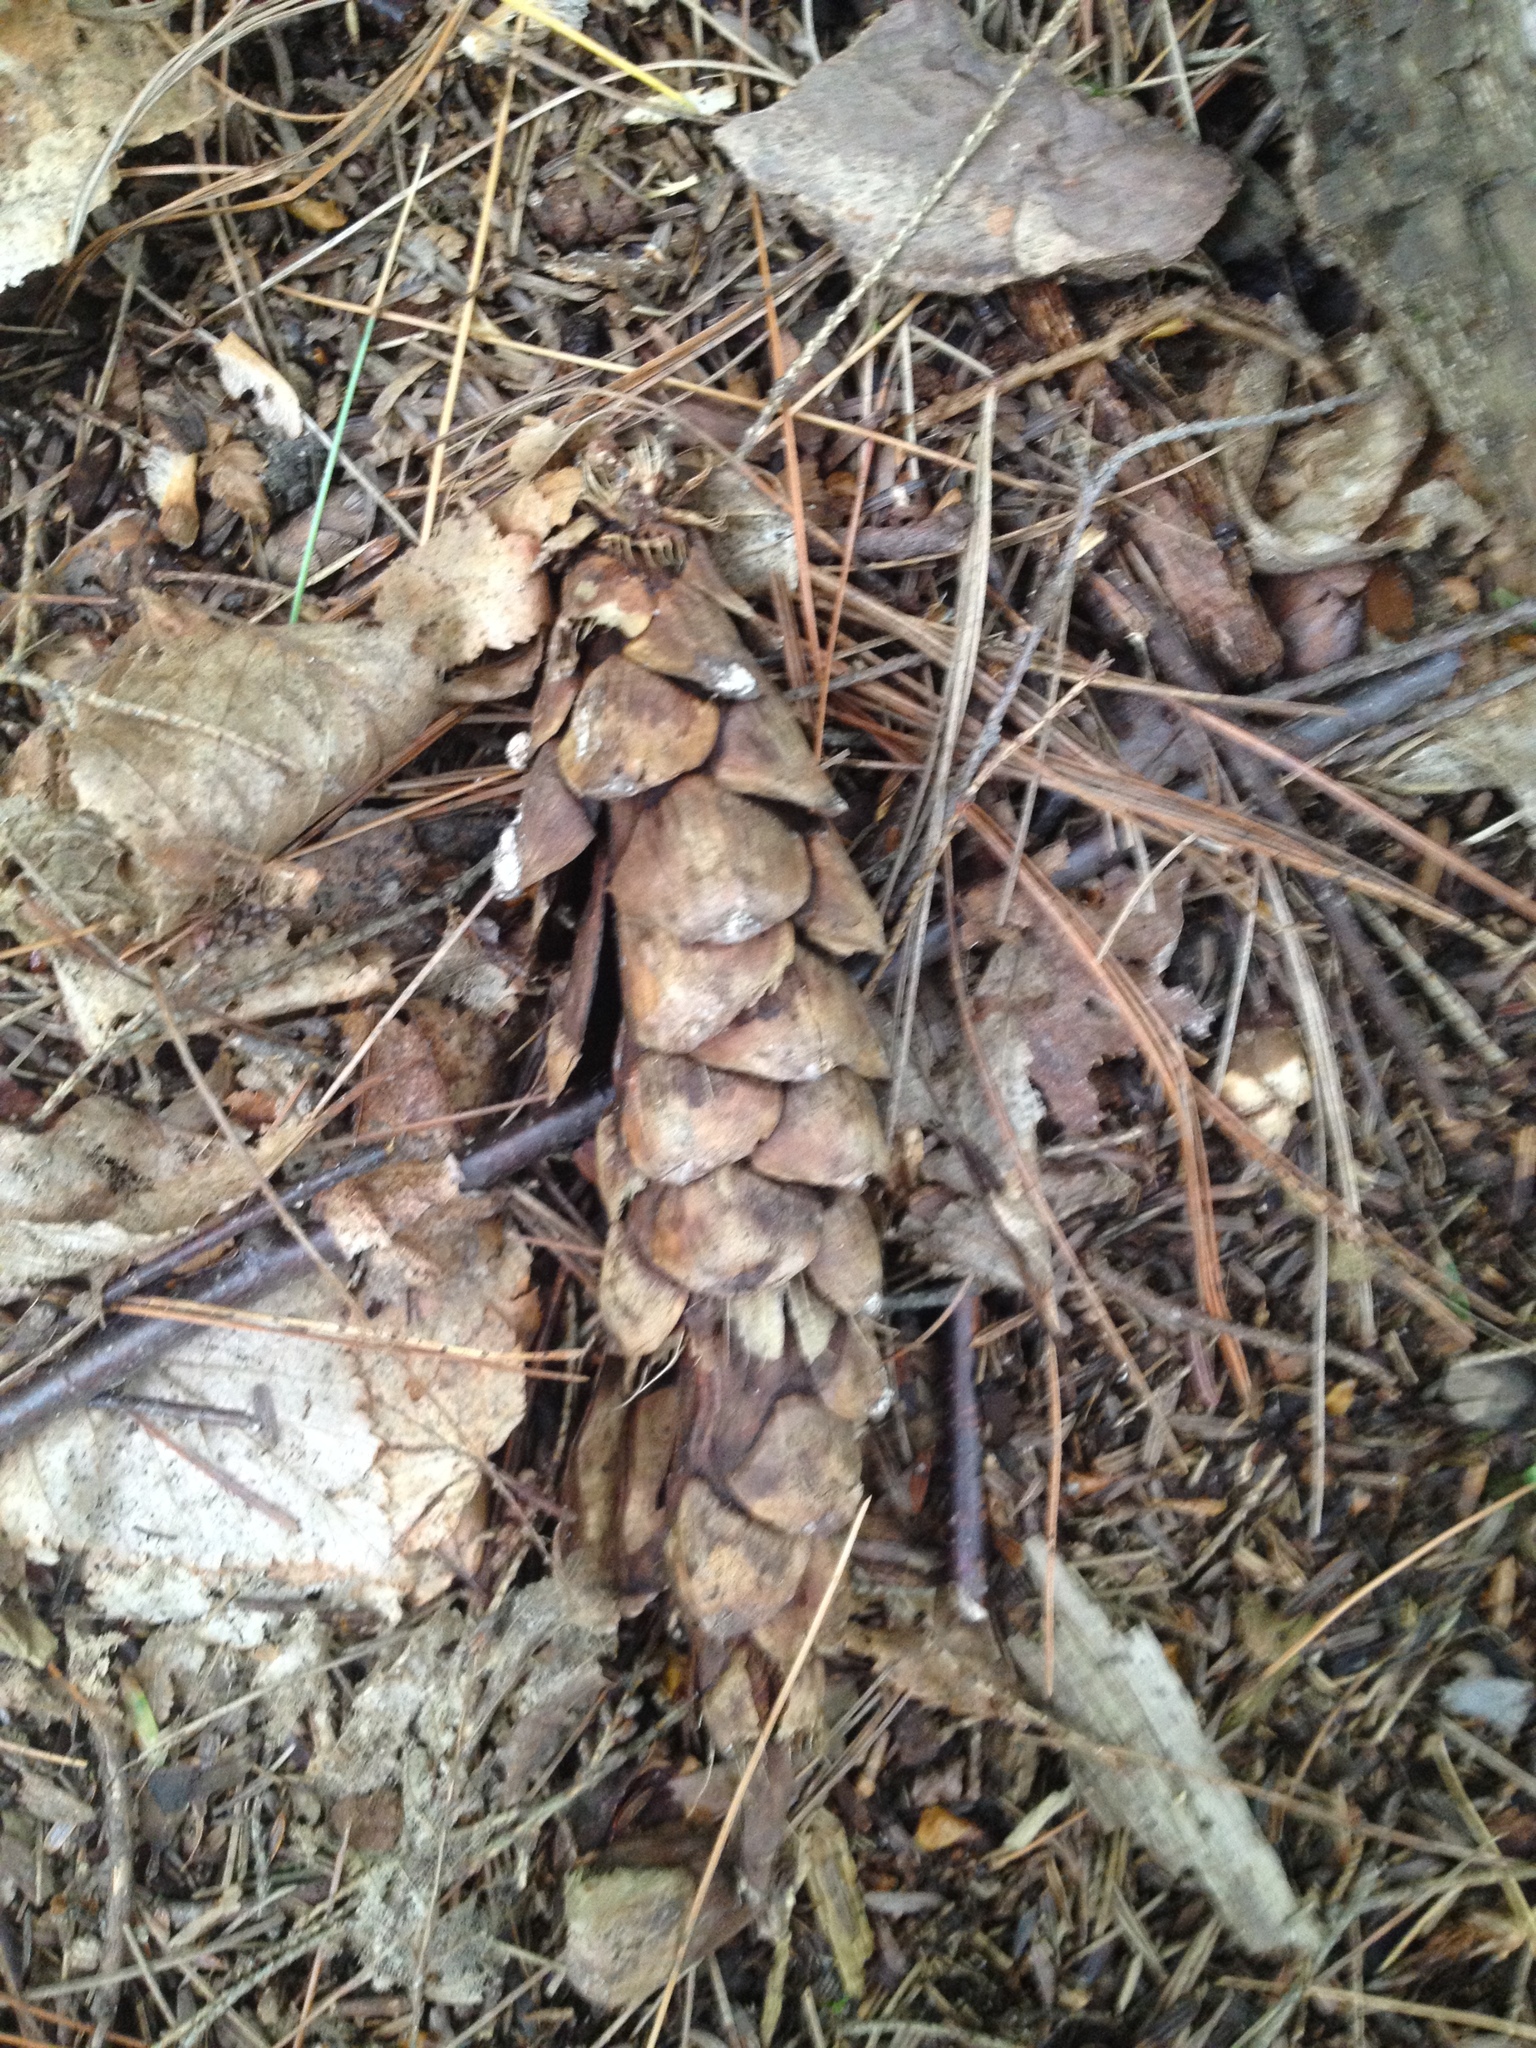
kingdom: Plantae
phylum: Tracheophyta
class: Pinopsida
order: Pinales
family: Pinaceae
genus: Pinus
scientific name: Pinus strobus
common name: Weymouth pine
